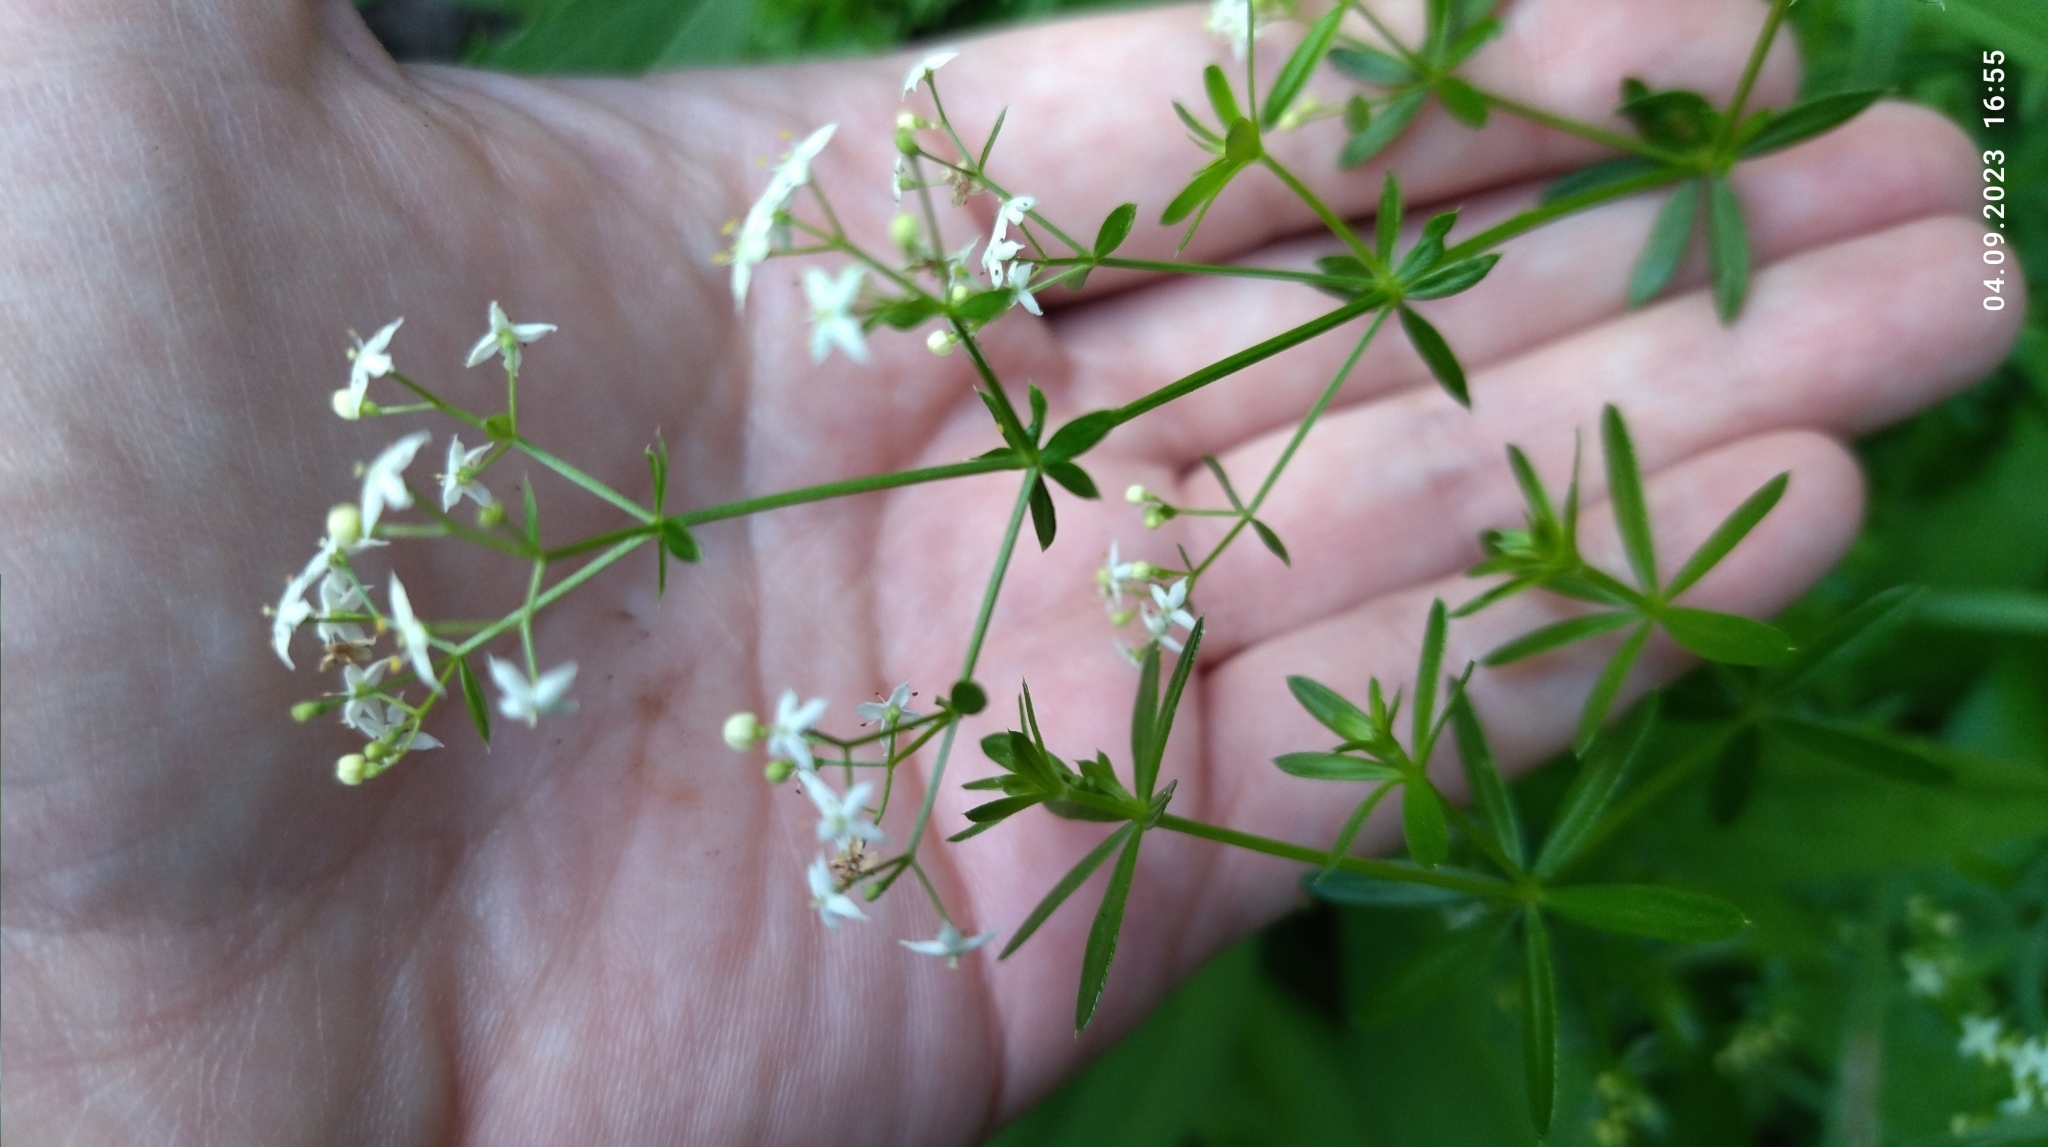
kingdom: Plantae
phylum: Tracheophyta
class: Magnoliopsida
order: Gentianales
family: Rubiaceae
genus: Galium
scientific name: Galium mollugo
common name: Hedge bedstraw
